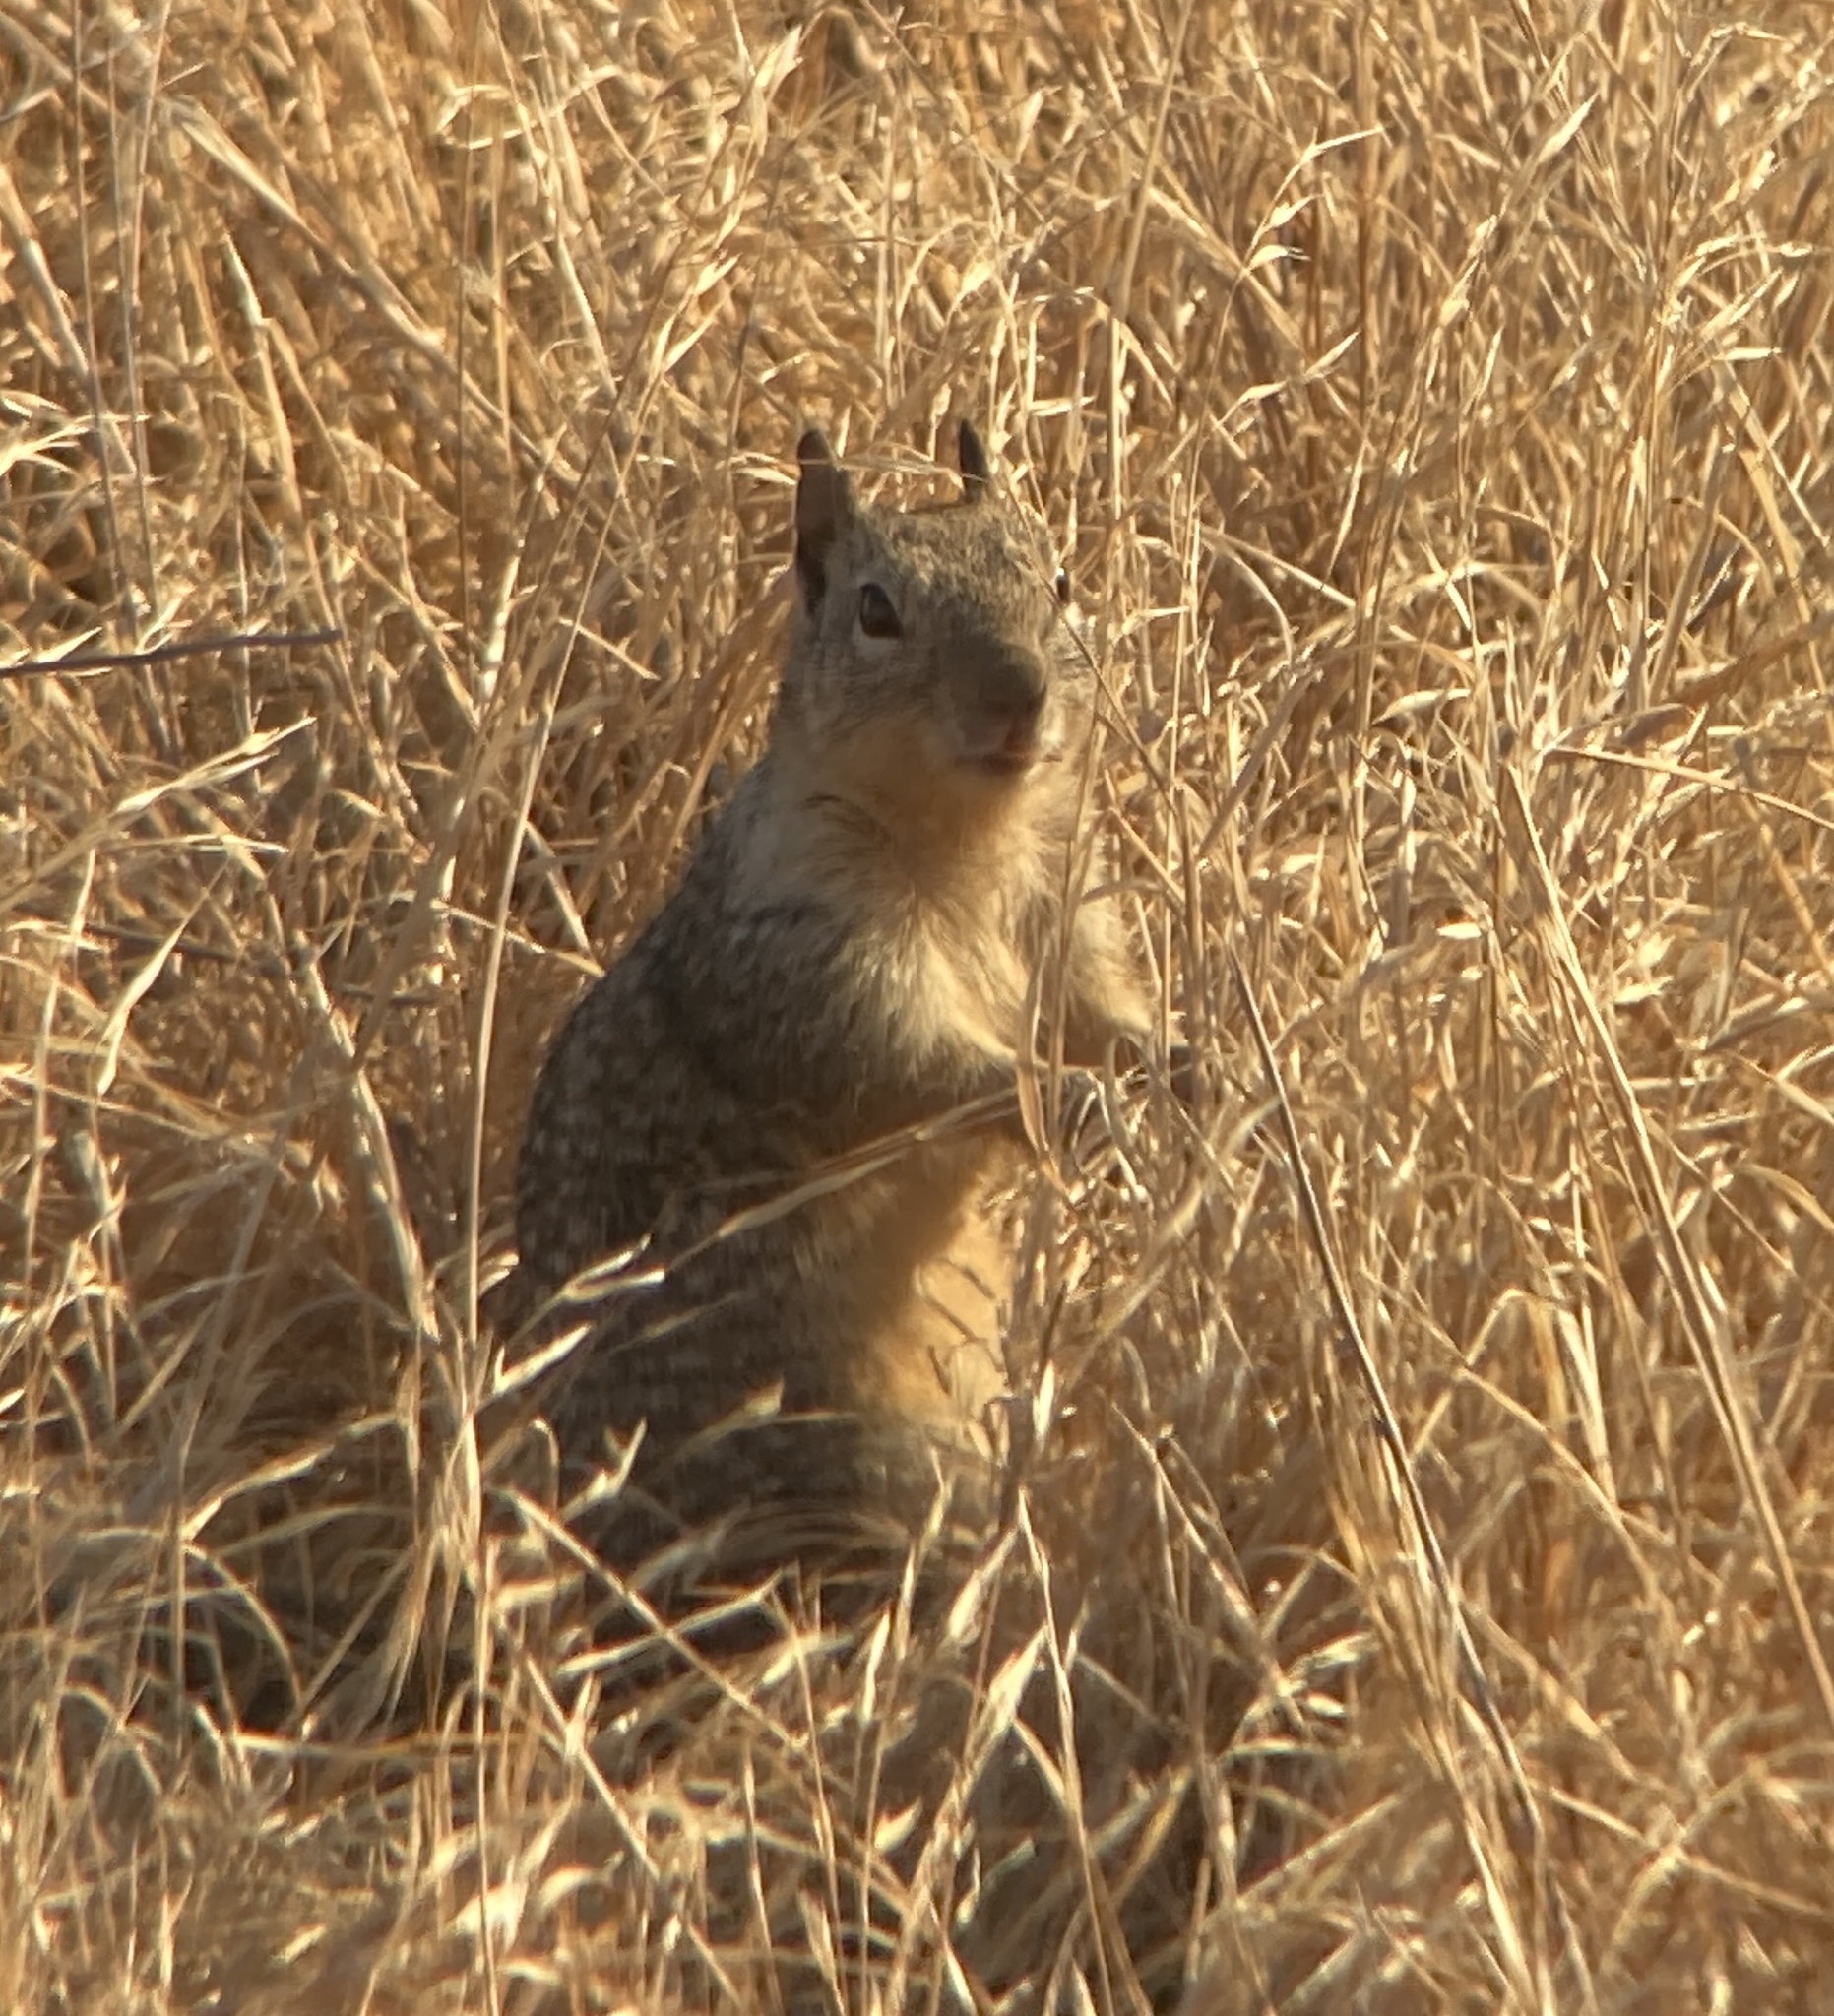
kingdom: Animalia
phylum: Chordata
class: Mammalia
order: Rodentia
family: Sciuridae
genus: Otospermophilus
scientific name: Otospermophilus beecheyi
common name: California ground squirrel
